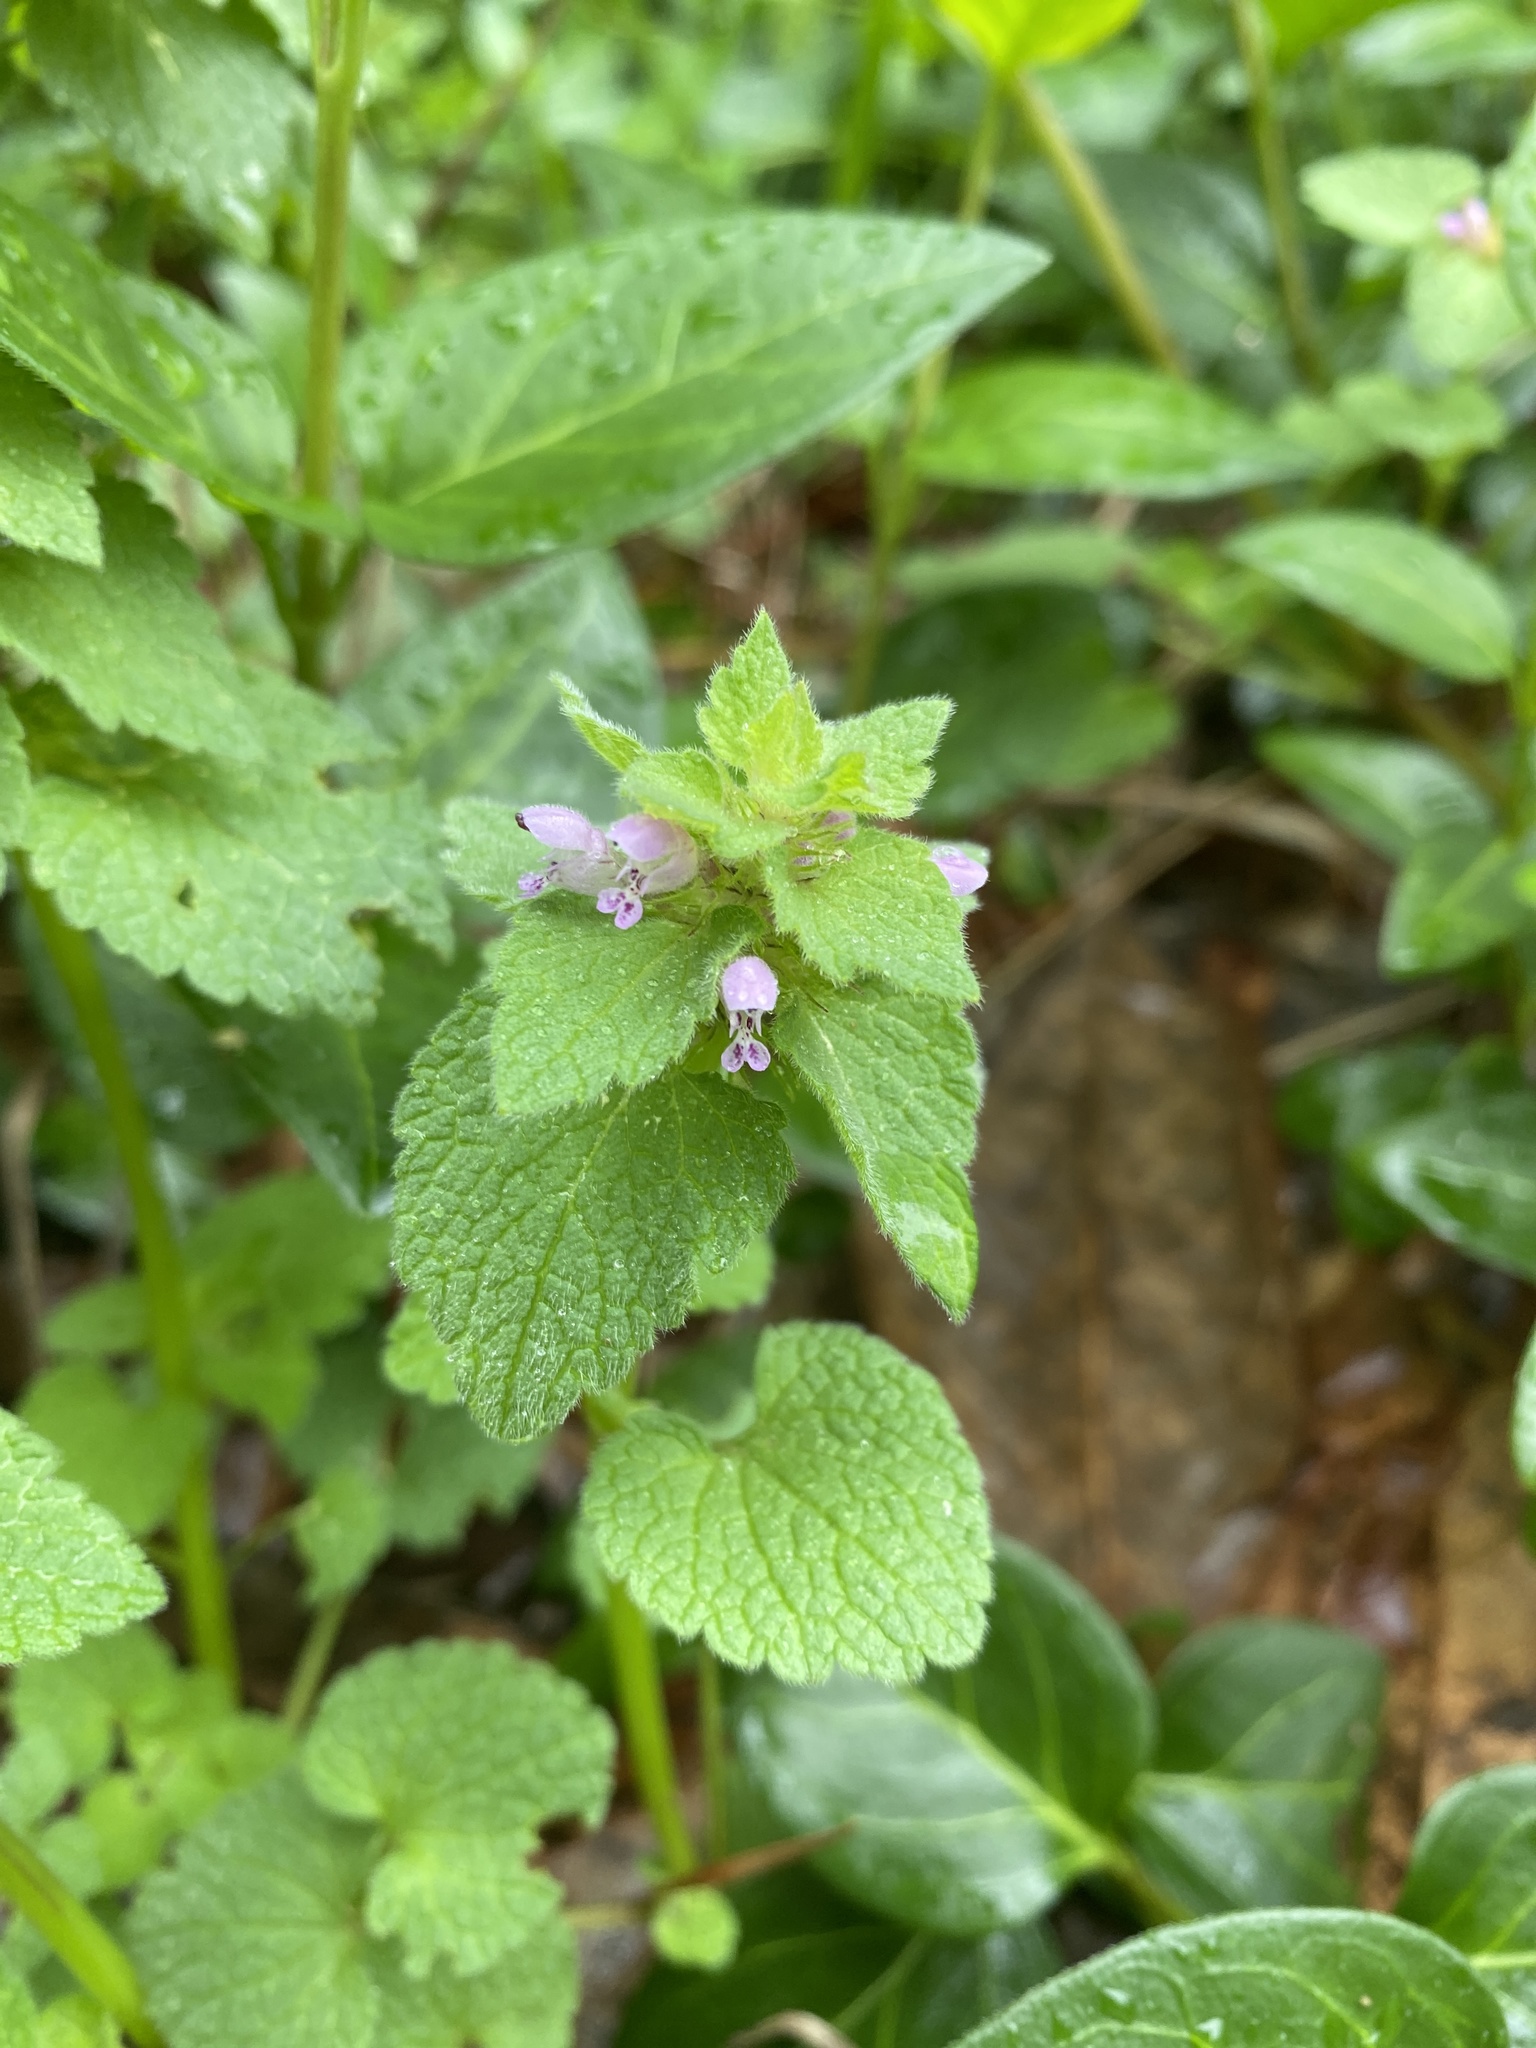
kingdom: Plantae
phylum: Tracheophyta
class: Magnoliopsida
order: Lamiales
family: Lamiaceae
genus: Lamium
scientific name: Lamium purpureum
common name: Red dead-nettle
